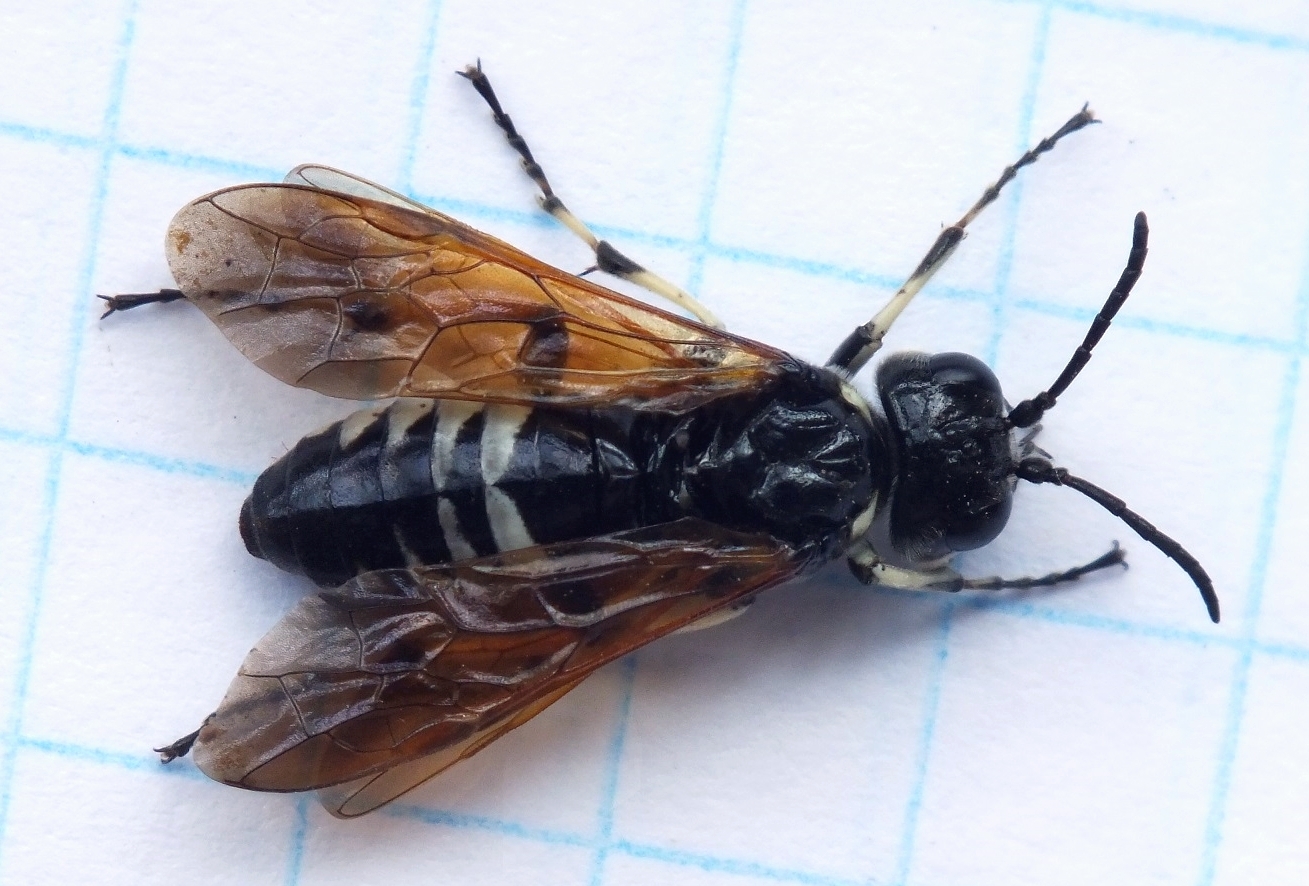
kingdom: Animalia
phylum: Arthropoda
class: Insecta
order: Hymenoptera
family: Tenthredinidae
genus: Tenthredo
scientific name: Tenthredo bifasciata
